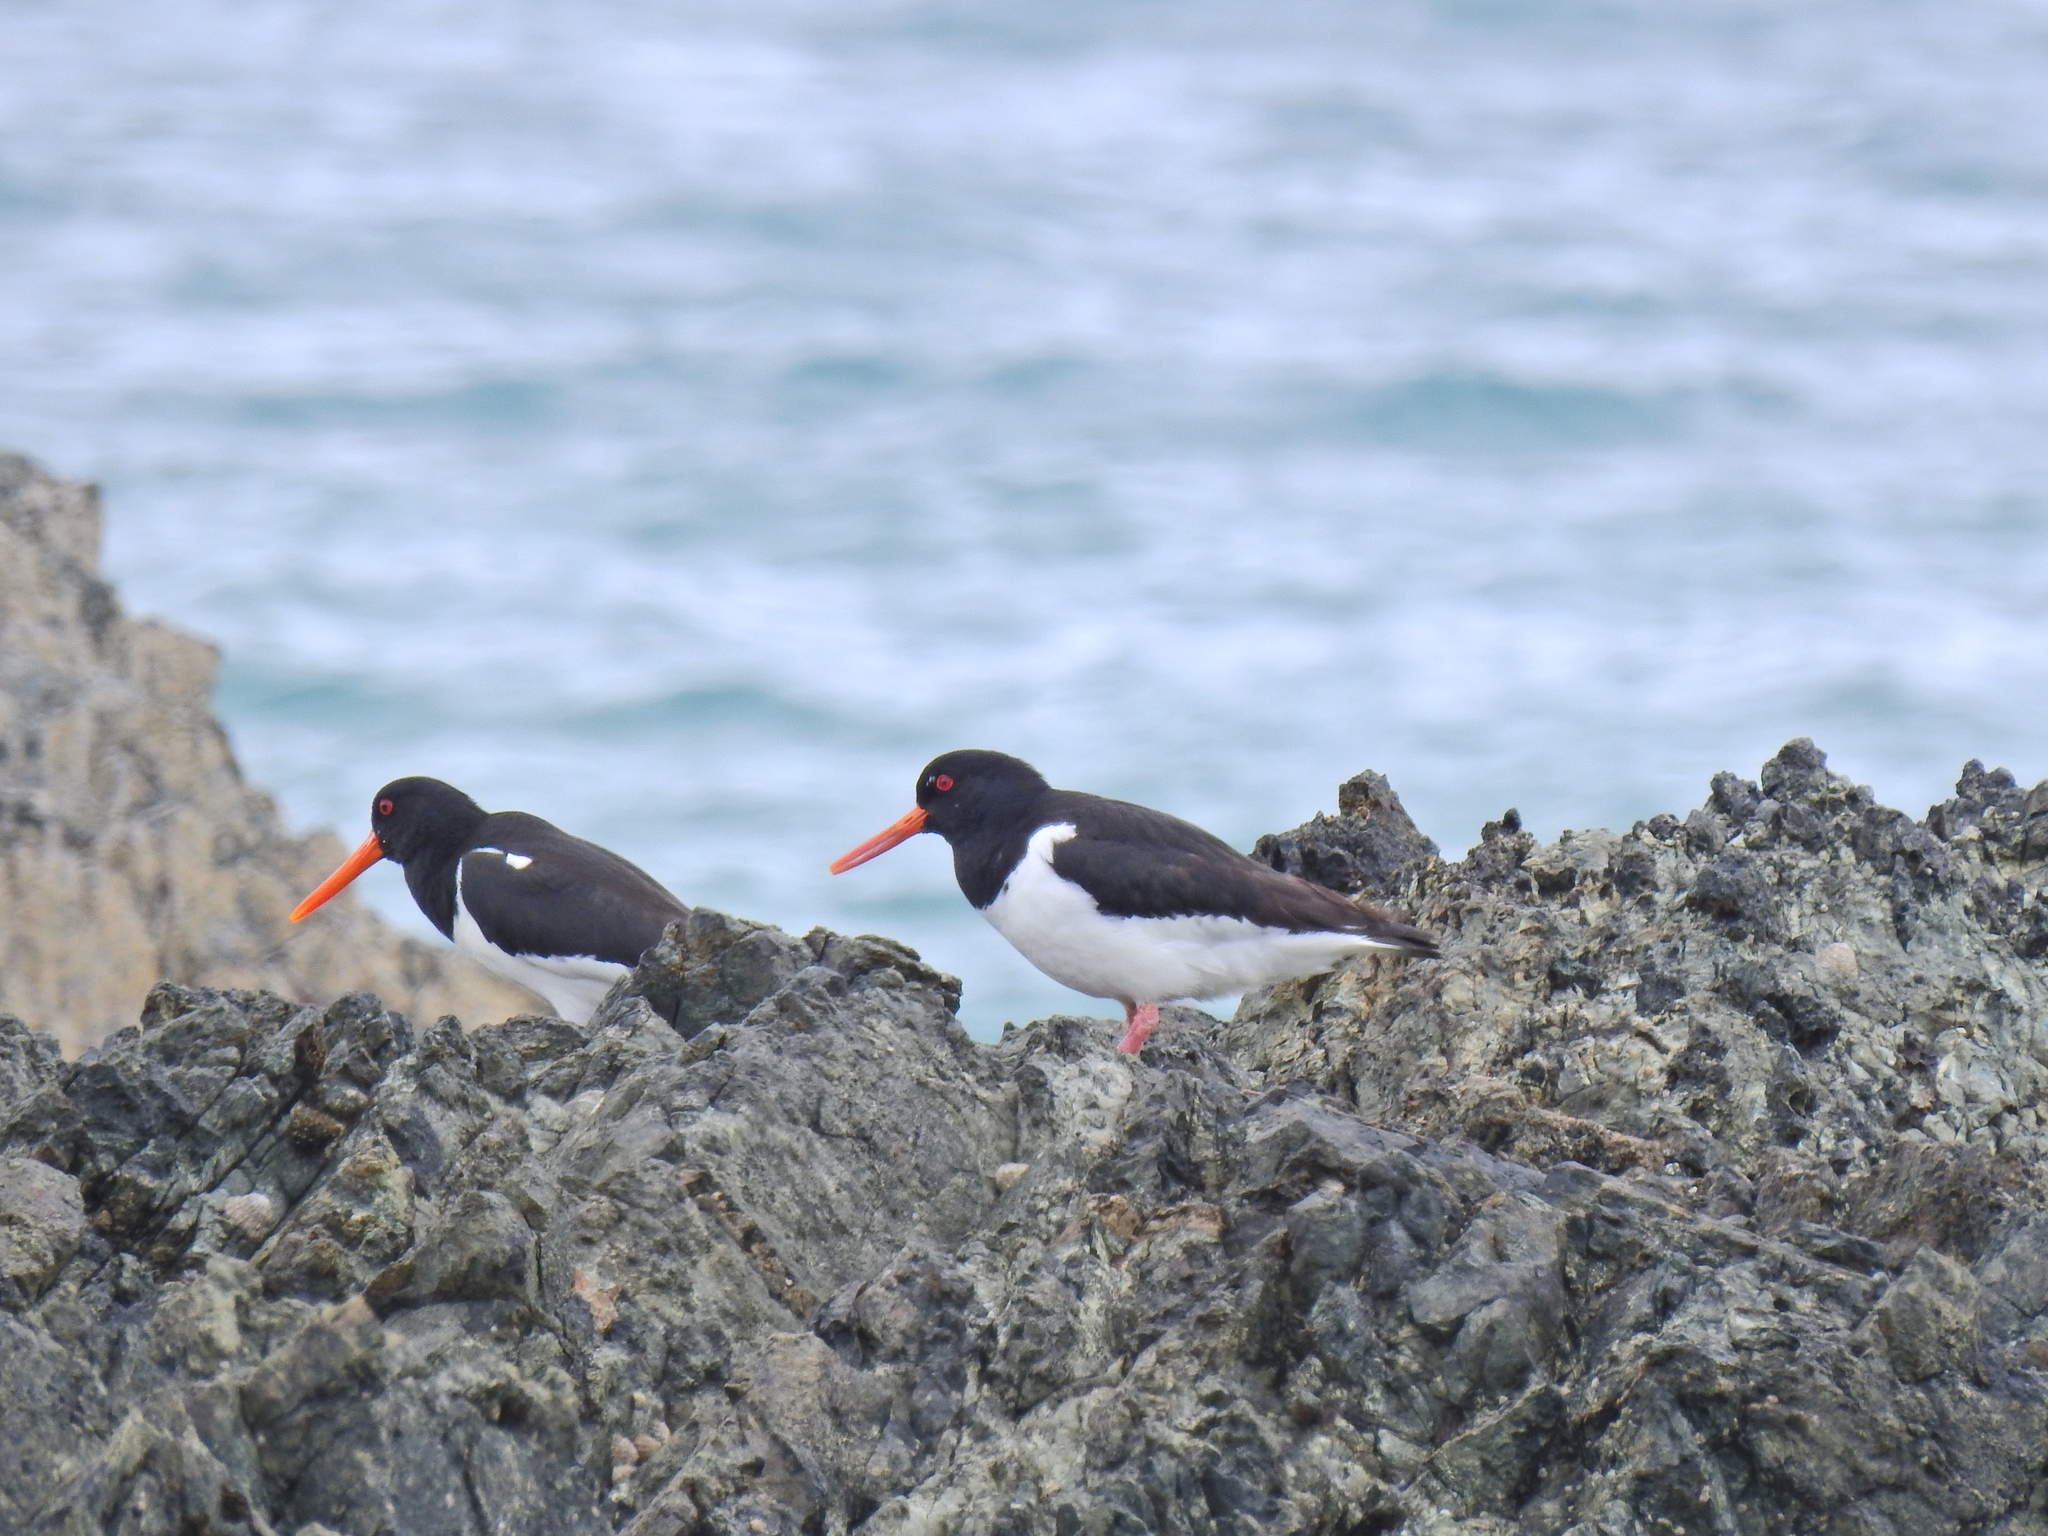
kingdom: Animalia
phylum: Chordata
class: Aves
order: Charadriiformes
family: Haematopodidae
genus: Haematopus
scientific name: Haematopus ostralegus
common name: Eurasian oystercatcher
